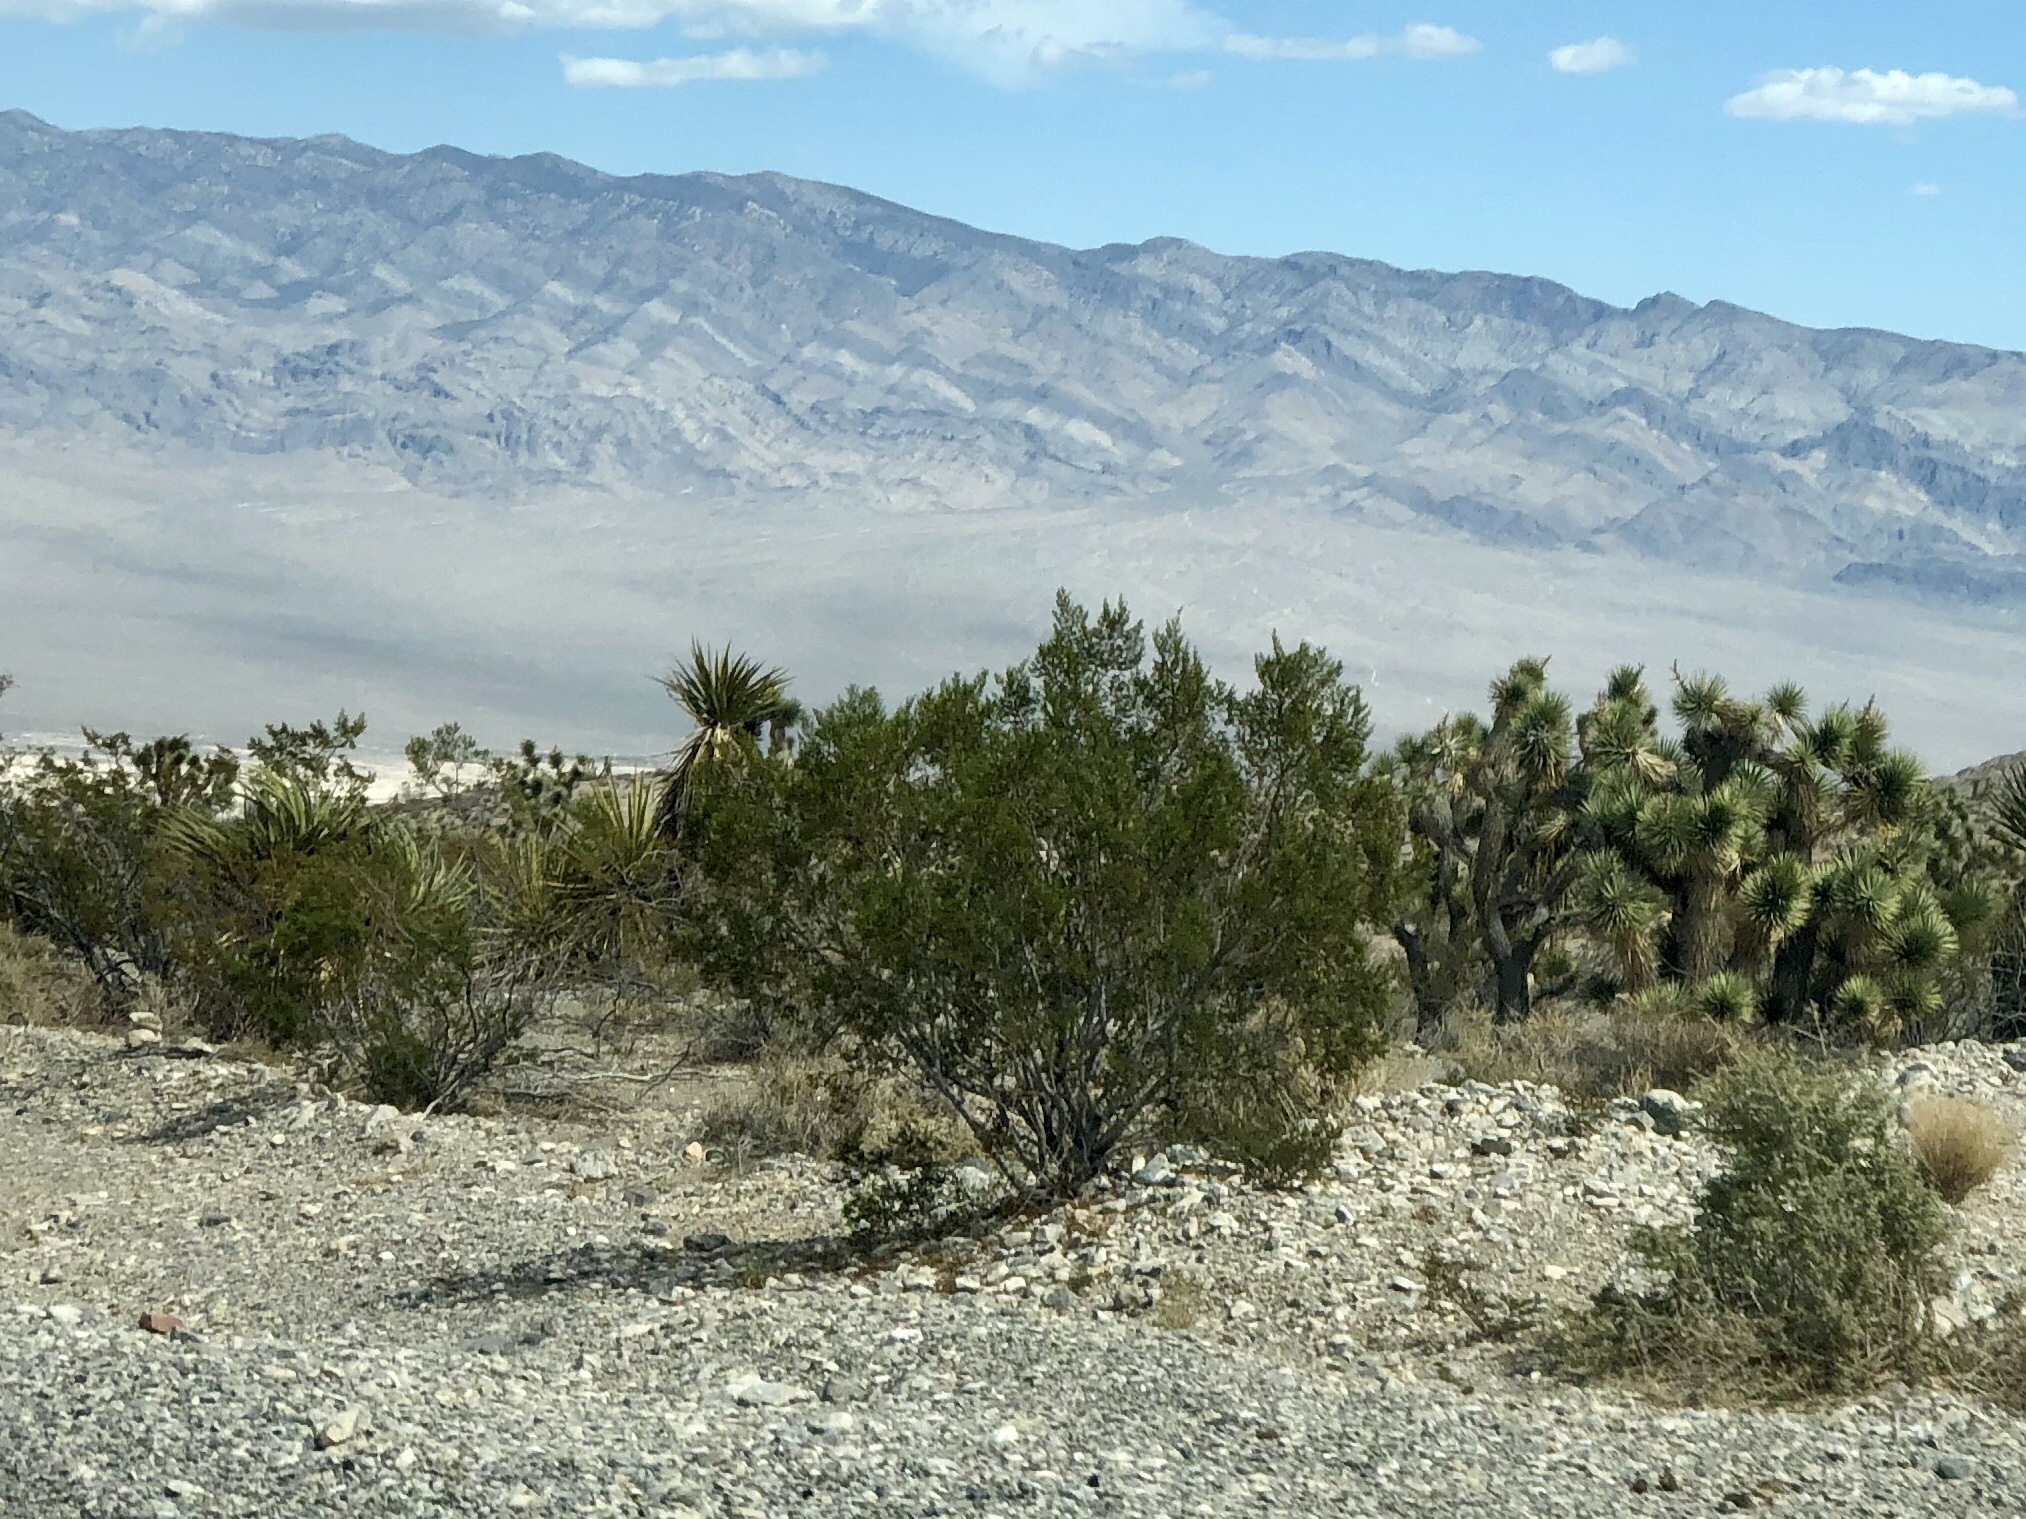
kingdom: Plantae
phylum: Tracheophyta
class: Magnoliopsida
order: Zygophyllales
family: Zygophyllaceae
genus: Larrea
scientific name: Larrea tridentata
